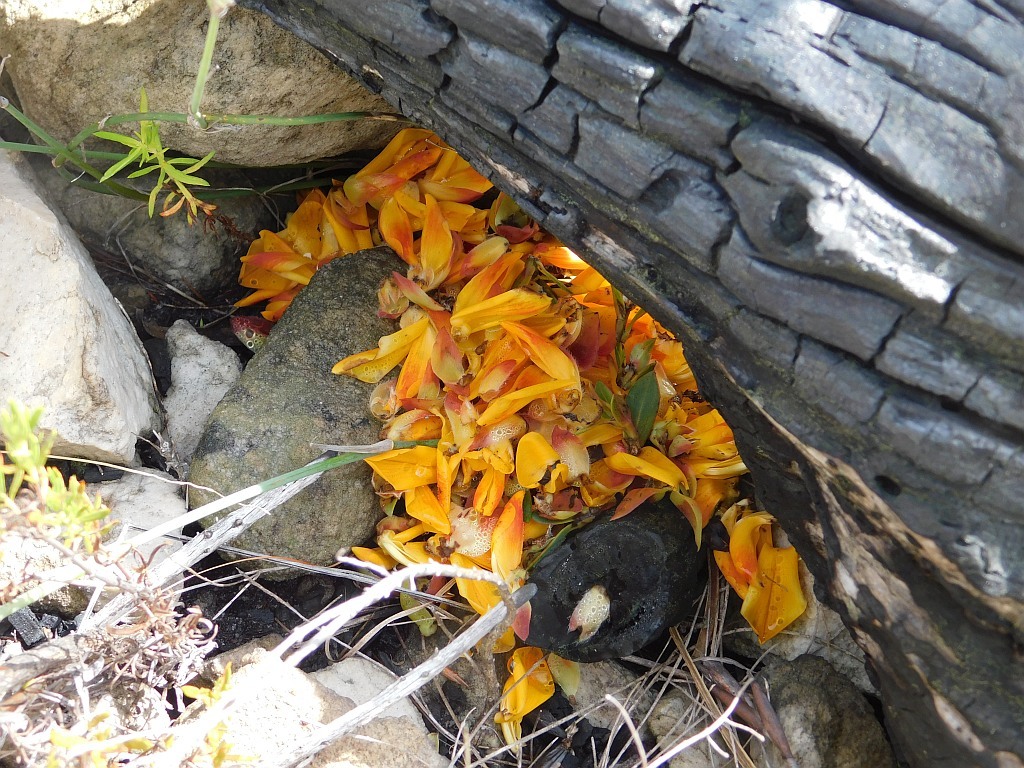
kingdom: Plantae
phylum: Tracheophyta
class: Magnoliopsida
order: Fabales
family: Fabaceae
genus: Liparia
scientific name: Liparia splendens
